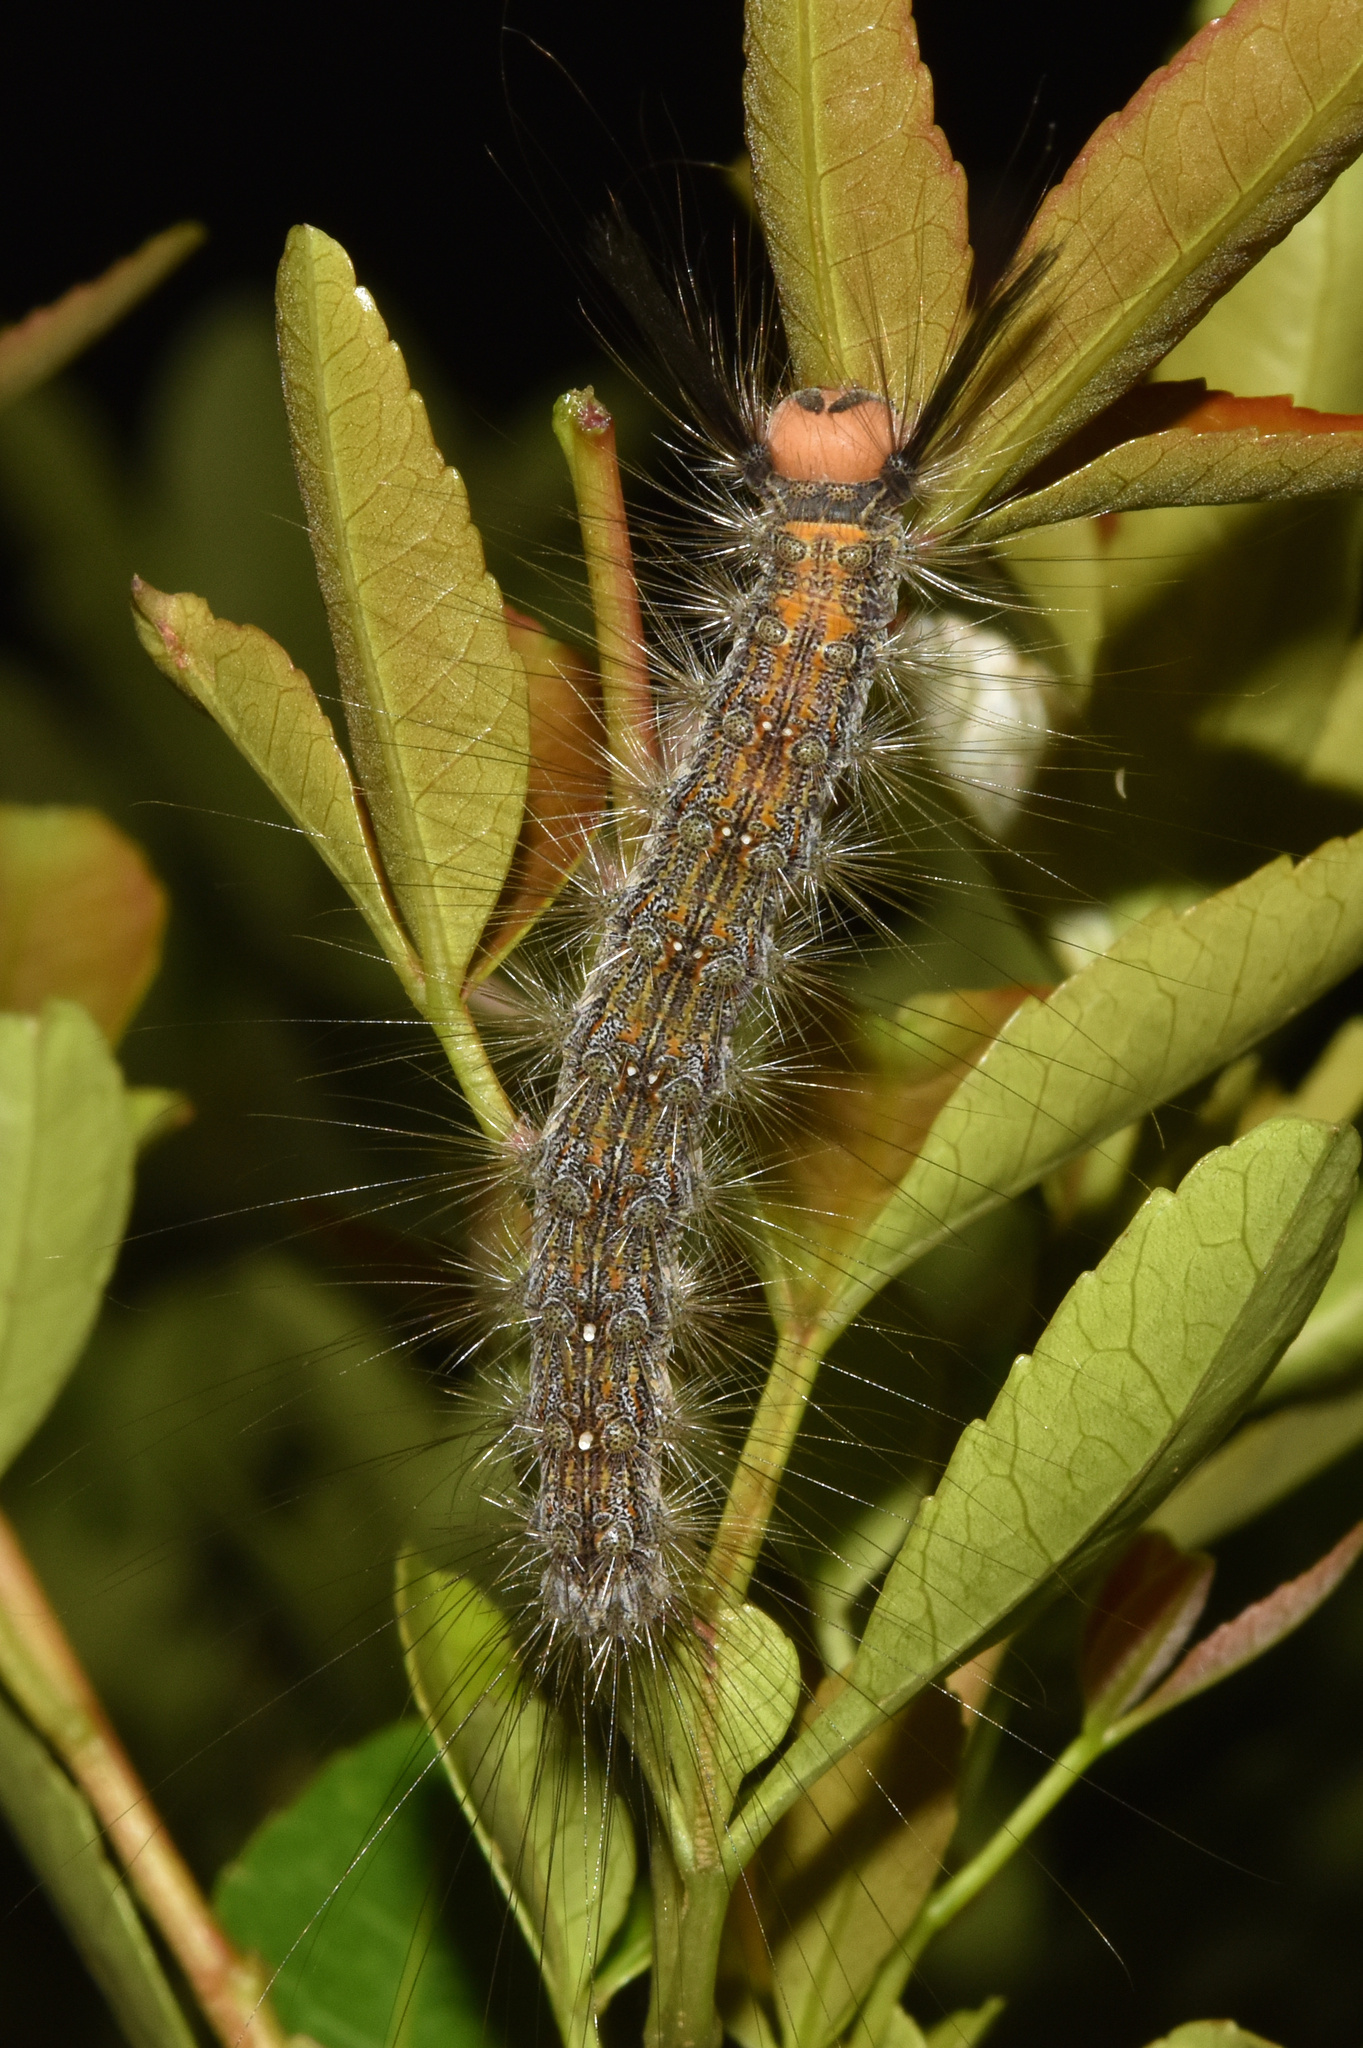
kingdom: Animalia
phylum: Arthropoda
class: Insecta
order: Lepidoptera
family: Erebidae
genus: Lymantria
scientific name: Lymantria Morasa modesta
